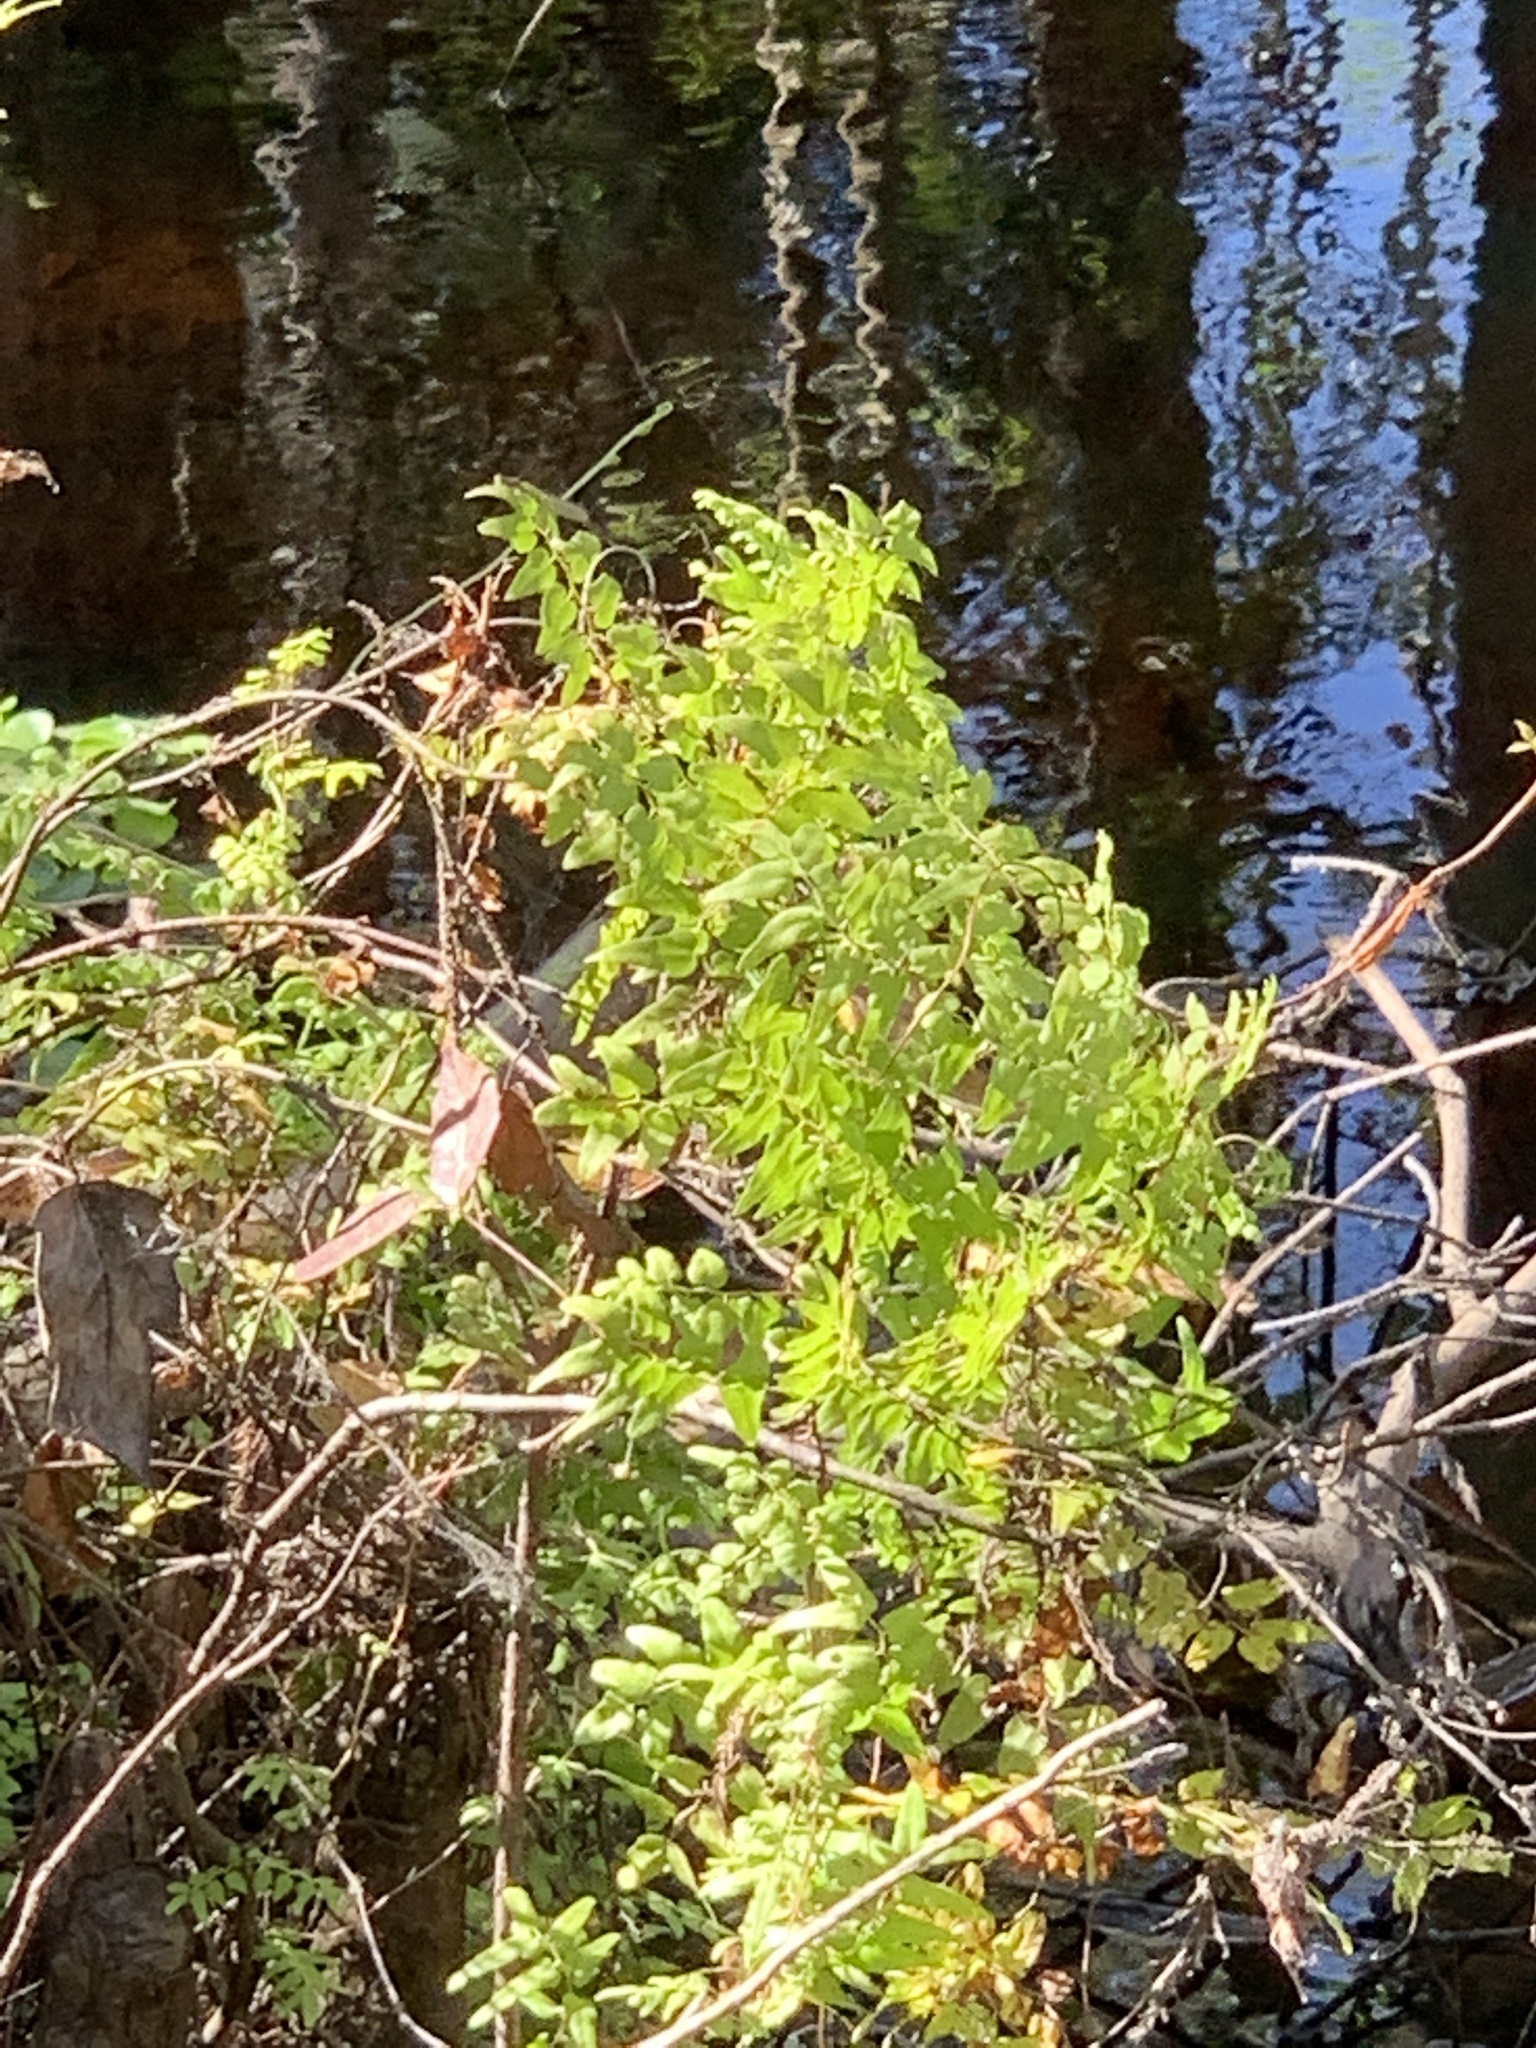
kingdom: Plantae
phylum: Tracheophyta
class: Polypodiopsida
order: Schizaeales
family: Lygodiaceae
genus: Lygodium
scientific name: Lygodium microphyllum
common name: Small-leaf climbing fern
